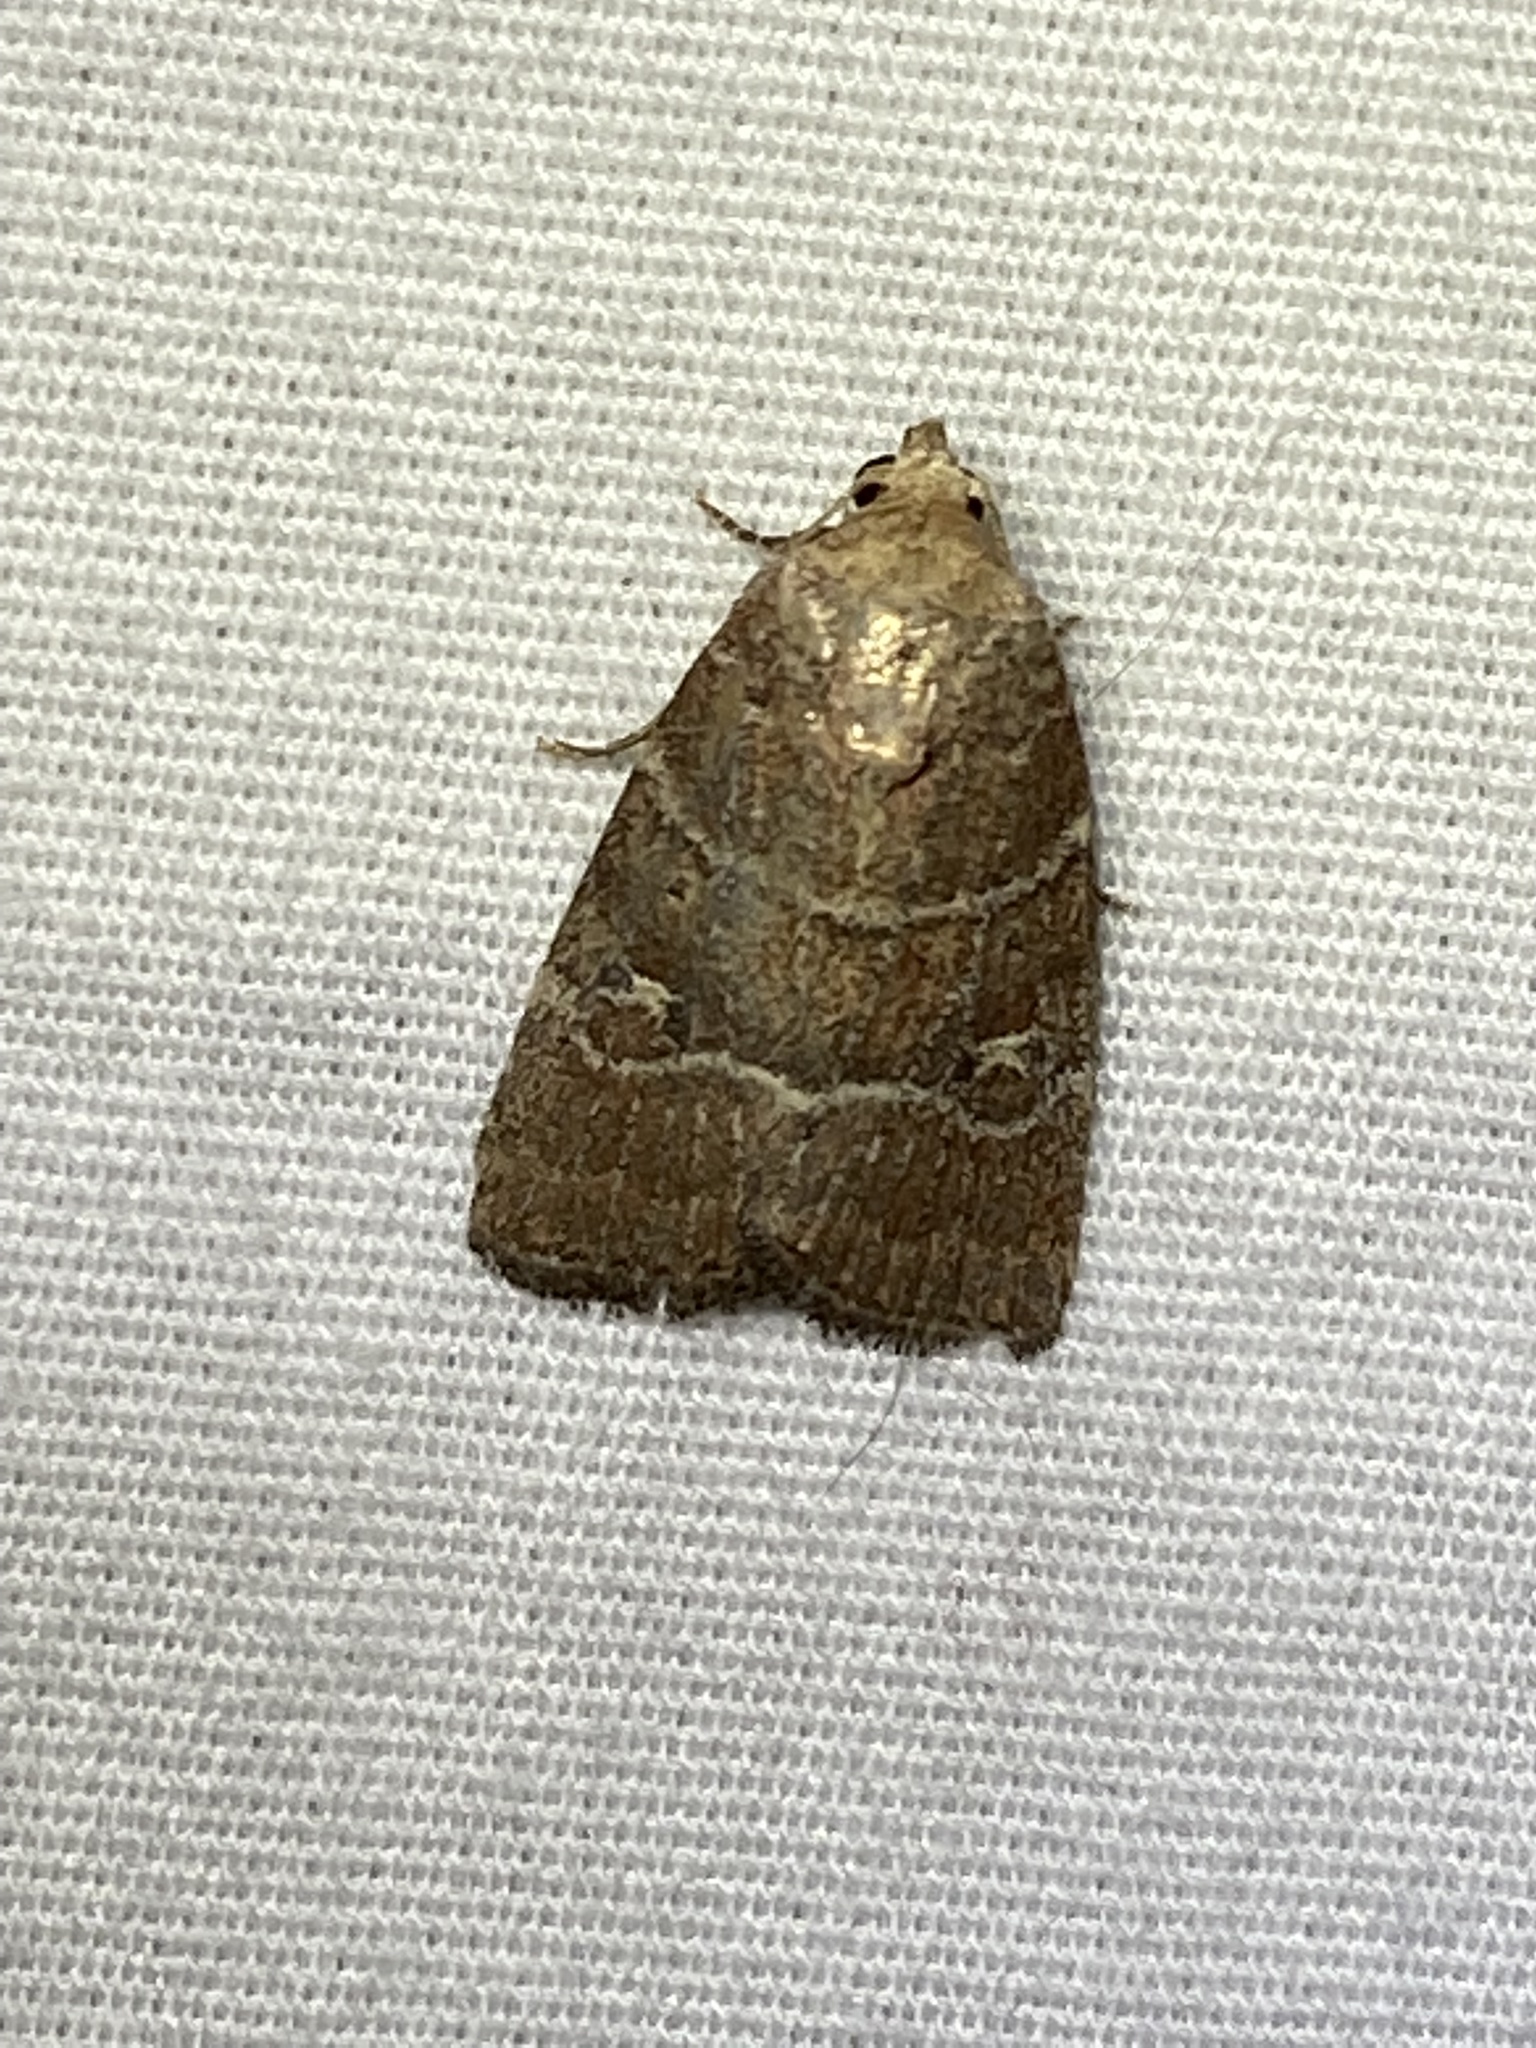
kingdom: Animalia
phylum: Arthropoda
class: Insecta
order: Lepidoptera
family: Noctuidae
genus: Elaphria
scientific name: Elaphria grata
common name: Grateful midget moth
